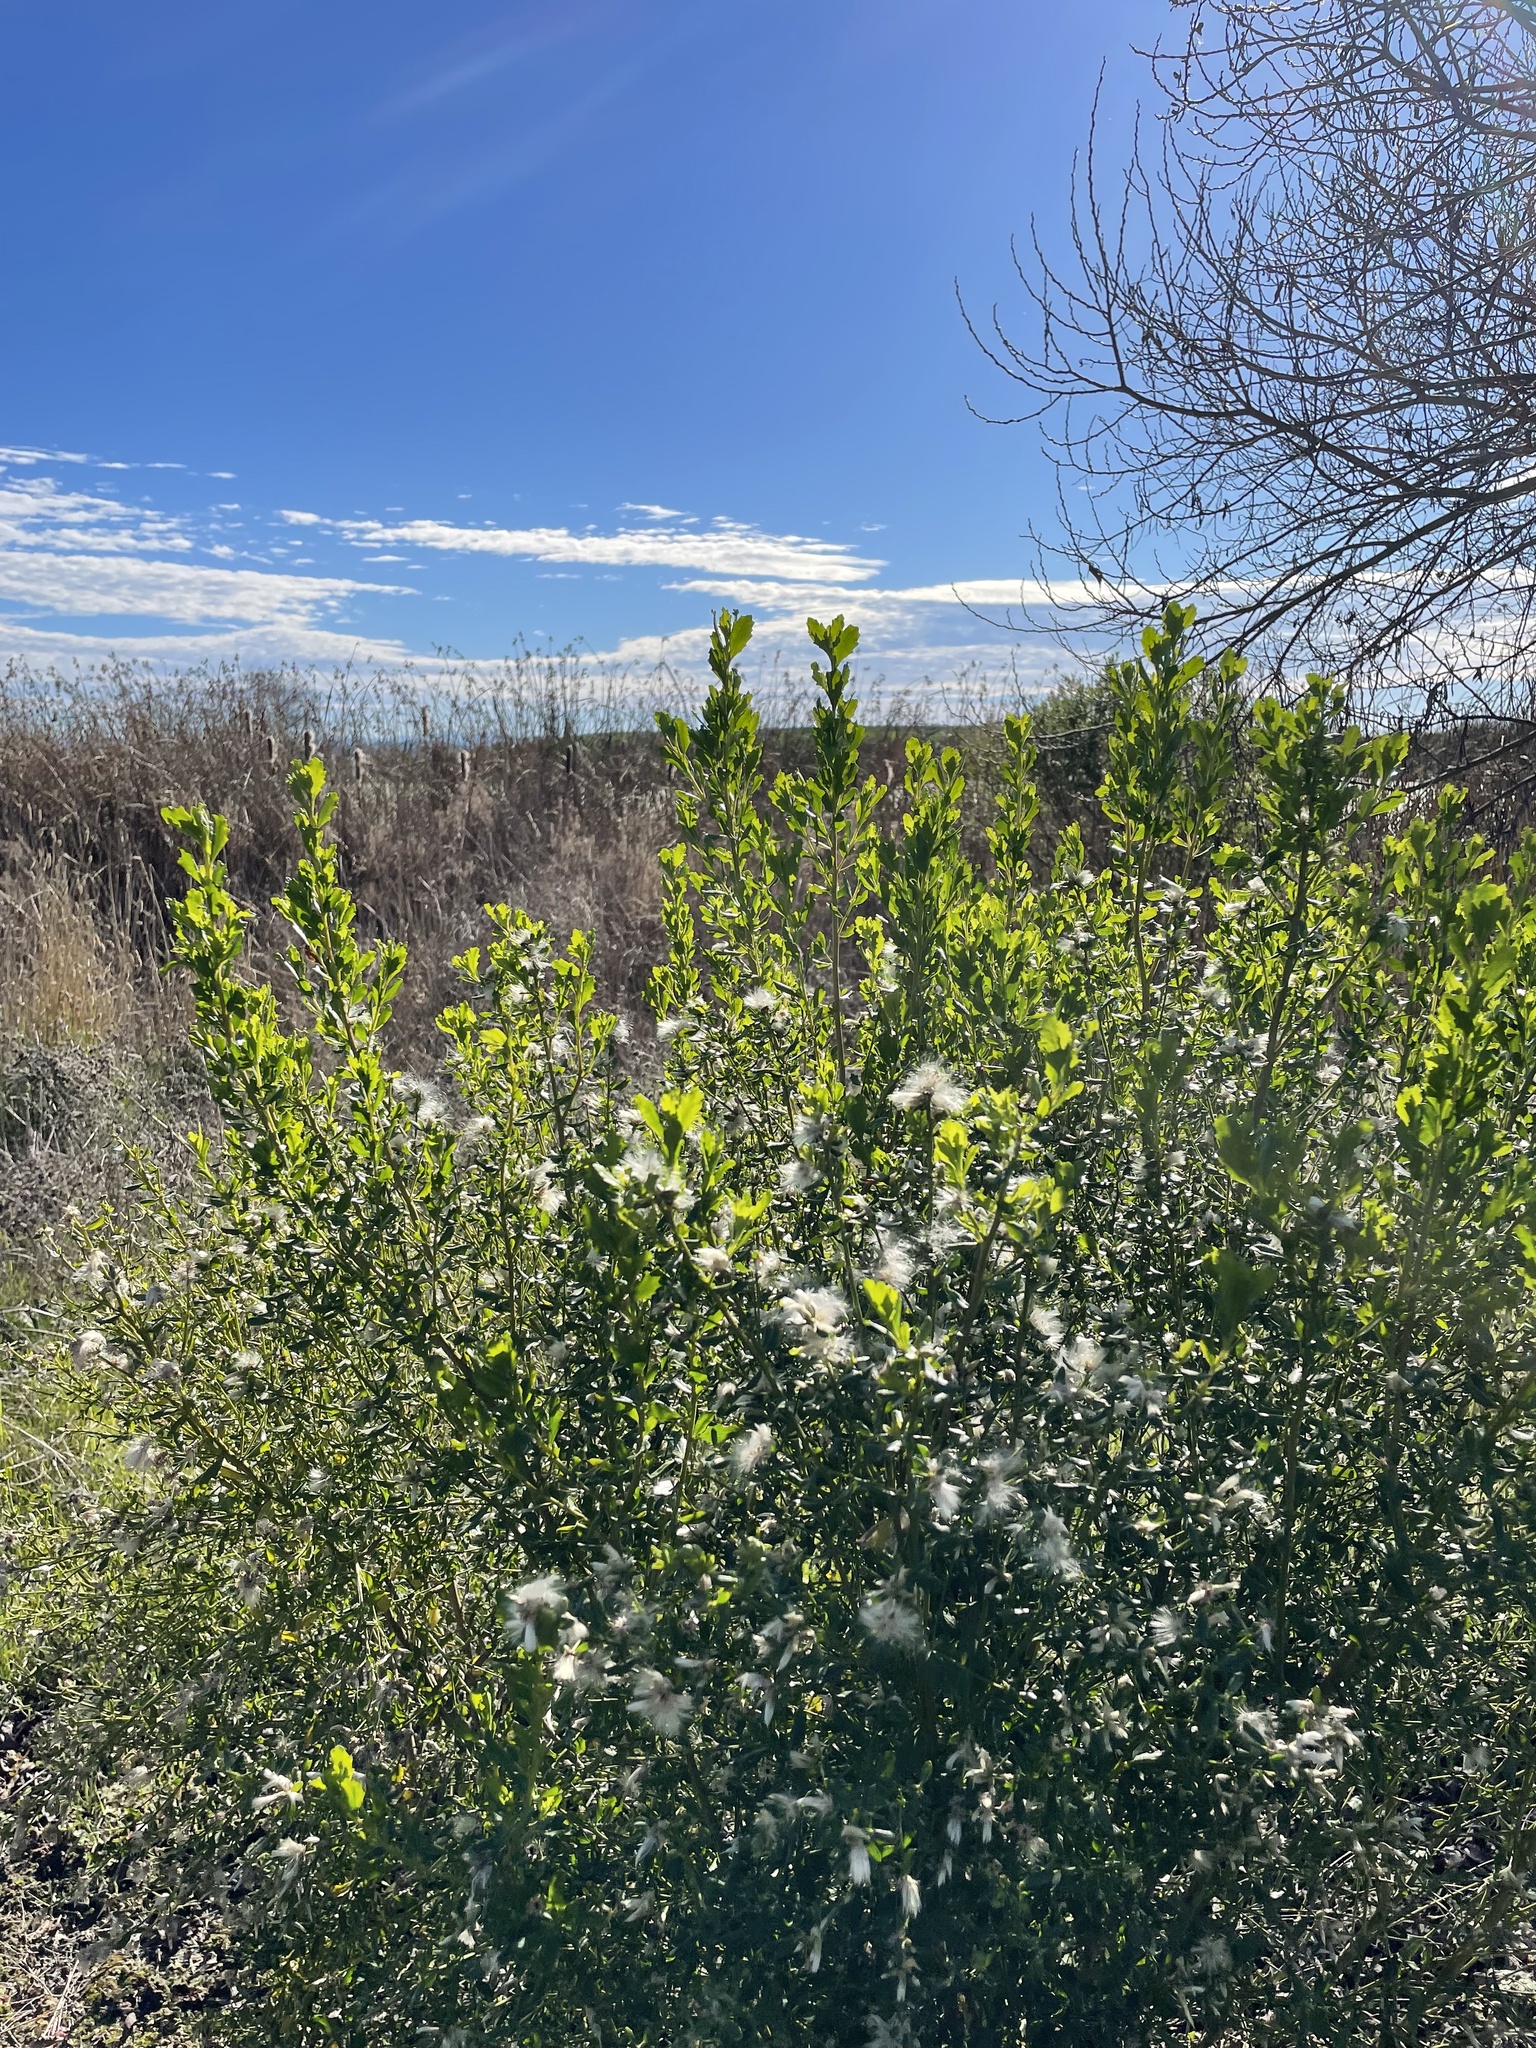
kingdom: Plantae
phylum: Tracheophyta
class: Magnoliopsida
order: Asterales
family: Asteraceae
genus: Baccharis
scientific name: Baccharis pilularis
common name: Coyotebrush
